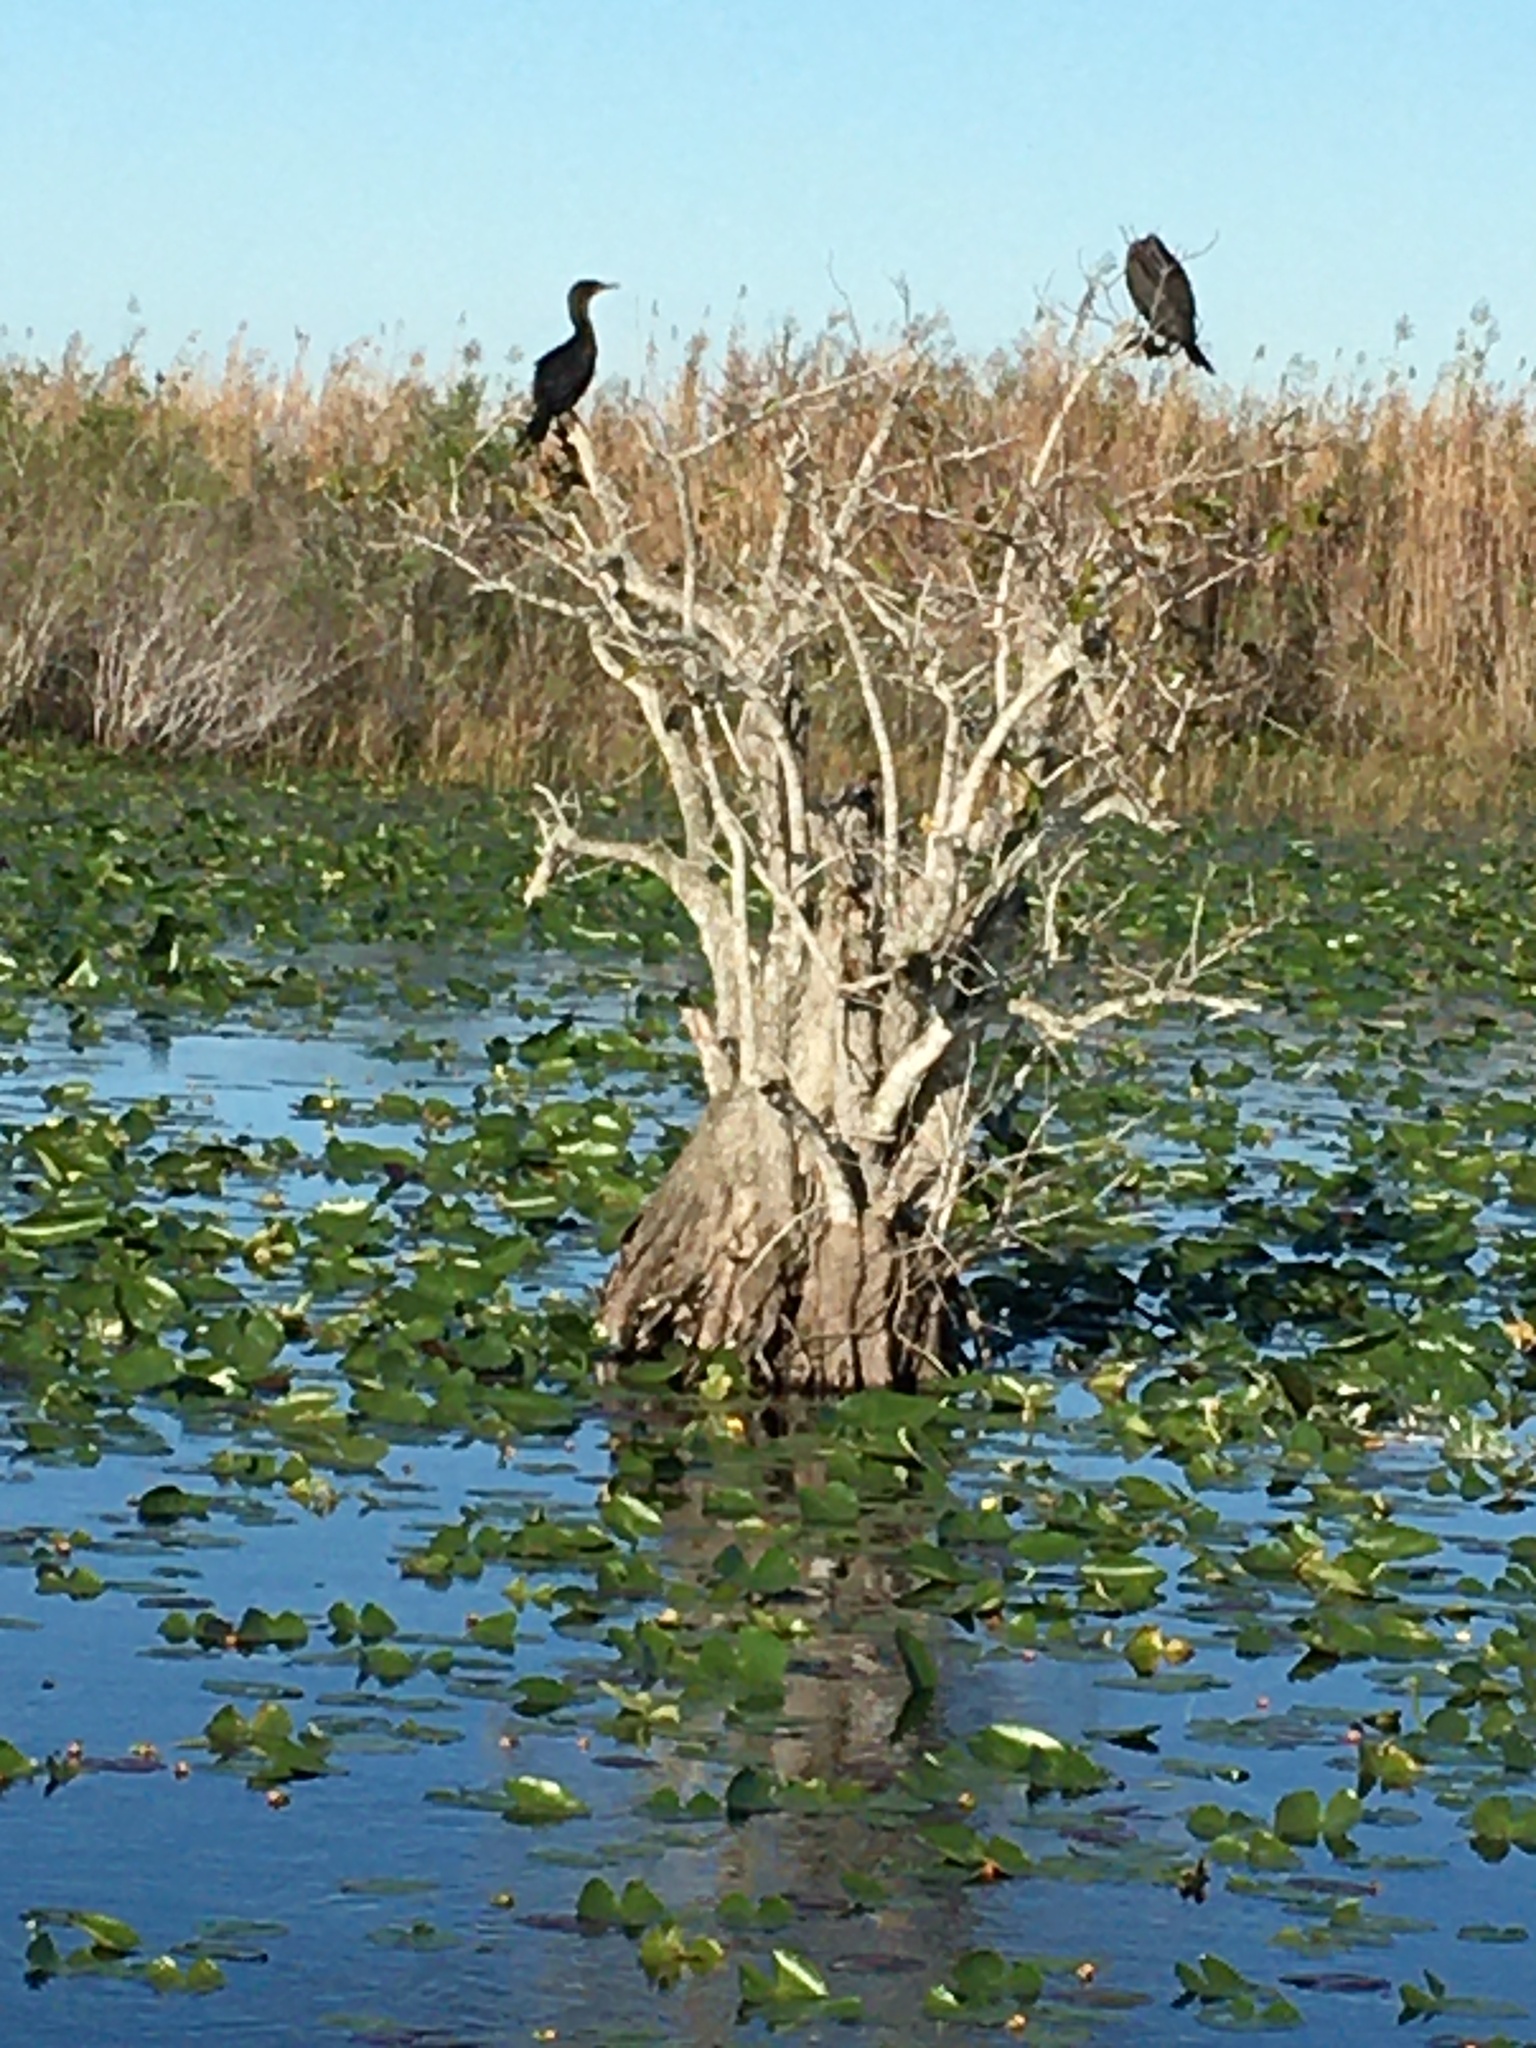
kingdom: Animalia
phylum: Chordata
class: Aves
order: Suliformes
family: Phalacrocoracidae
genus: Phalacrocorax
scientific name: Phalacrocorax auritus
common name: Double-crested cormorant
